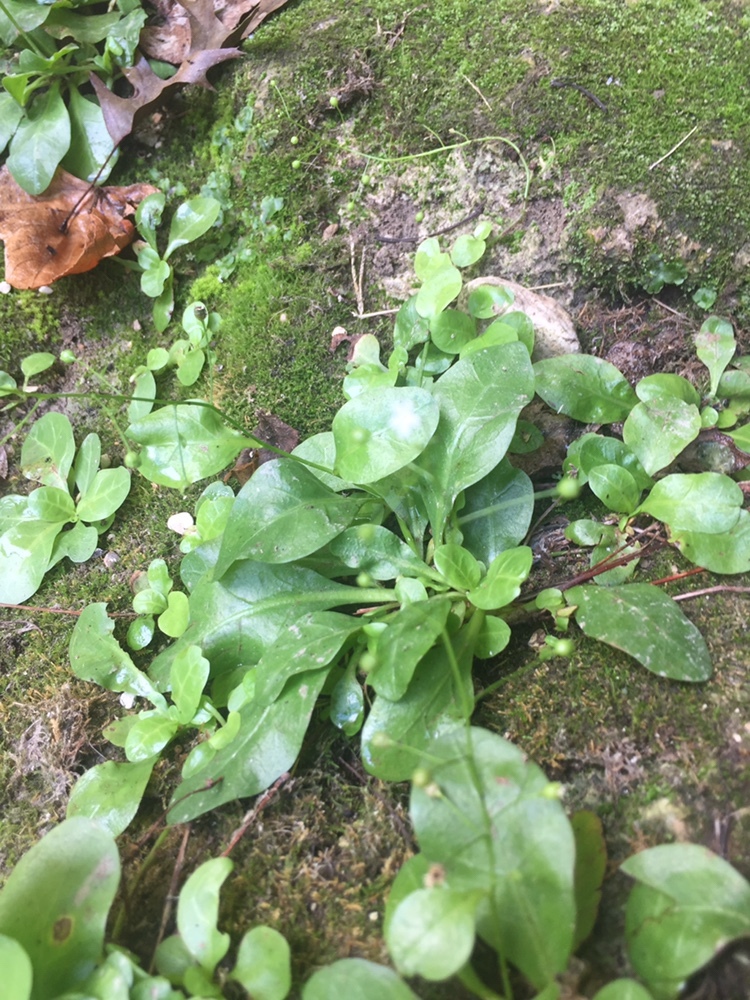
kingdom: Plantae
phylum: Tracheophyta
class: Magnoliopsida
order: Ericales
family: Primulaceae
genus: Samolus
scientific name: Samolus parviflorus
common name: False water pimpernel
